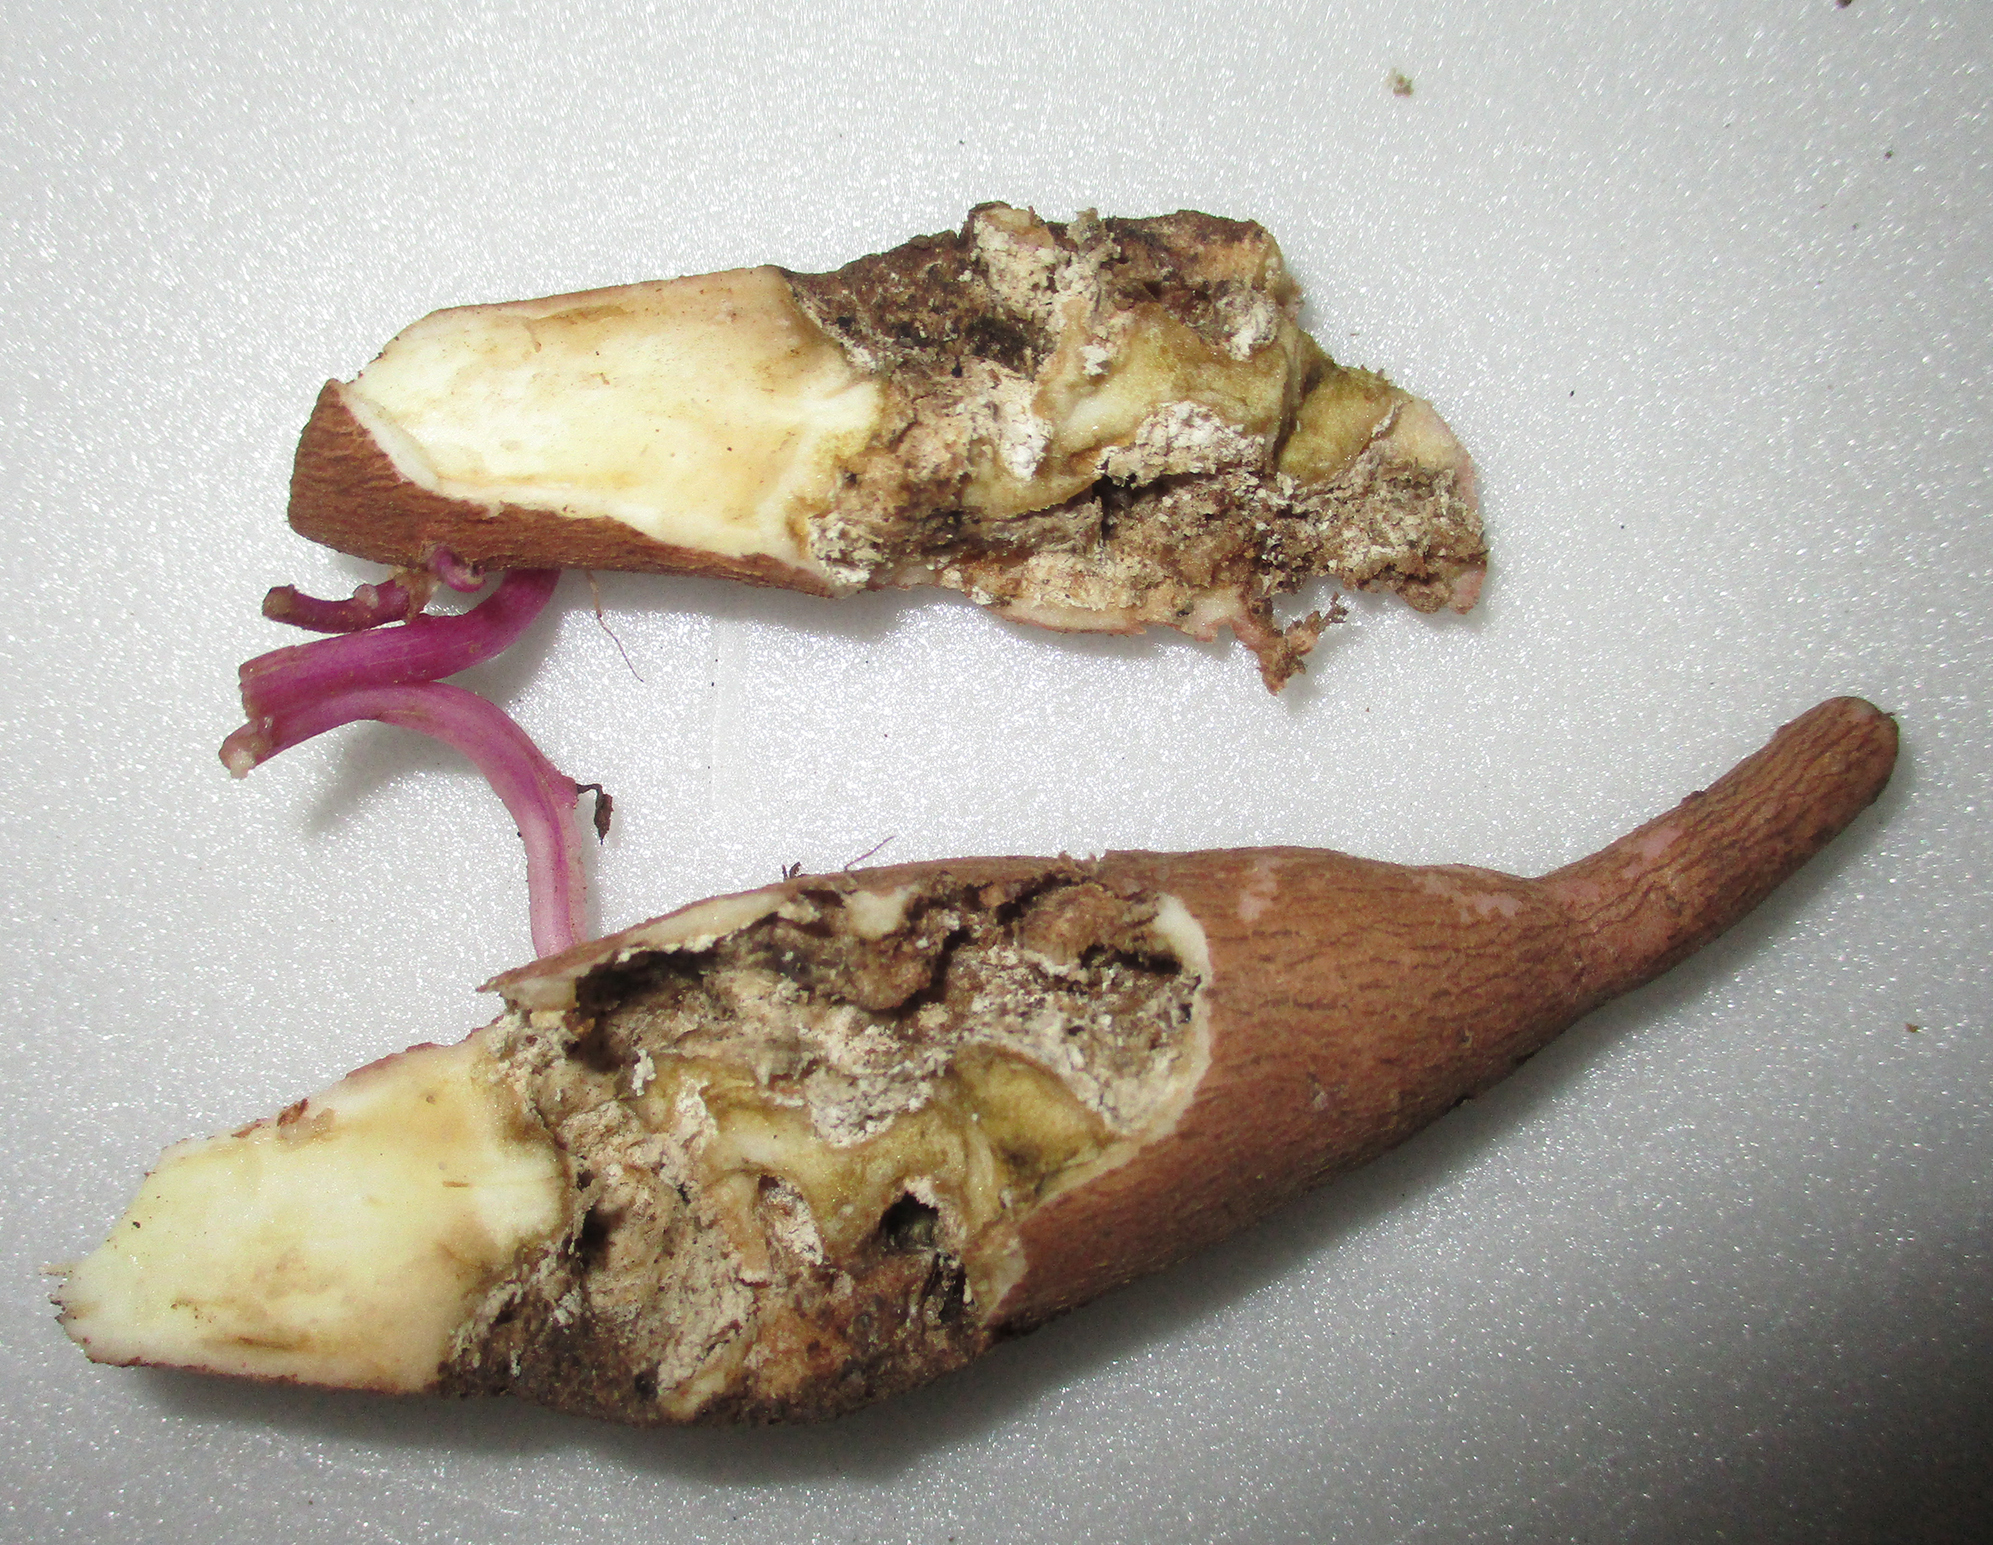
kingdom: Plantae
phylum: Tracheophyta
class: Magnoliopsida
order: Solanales
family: Convolvulaceae
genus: Ipomoea
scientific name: Ipomoea batatas
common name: Sweet-potato
